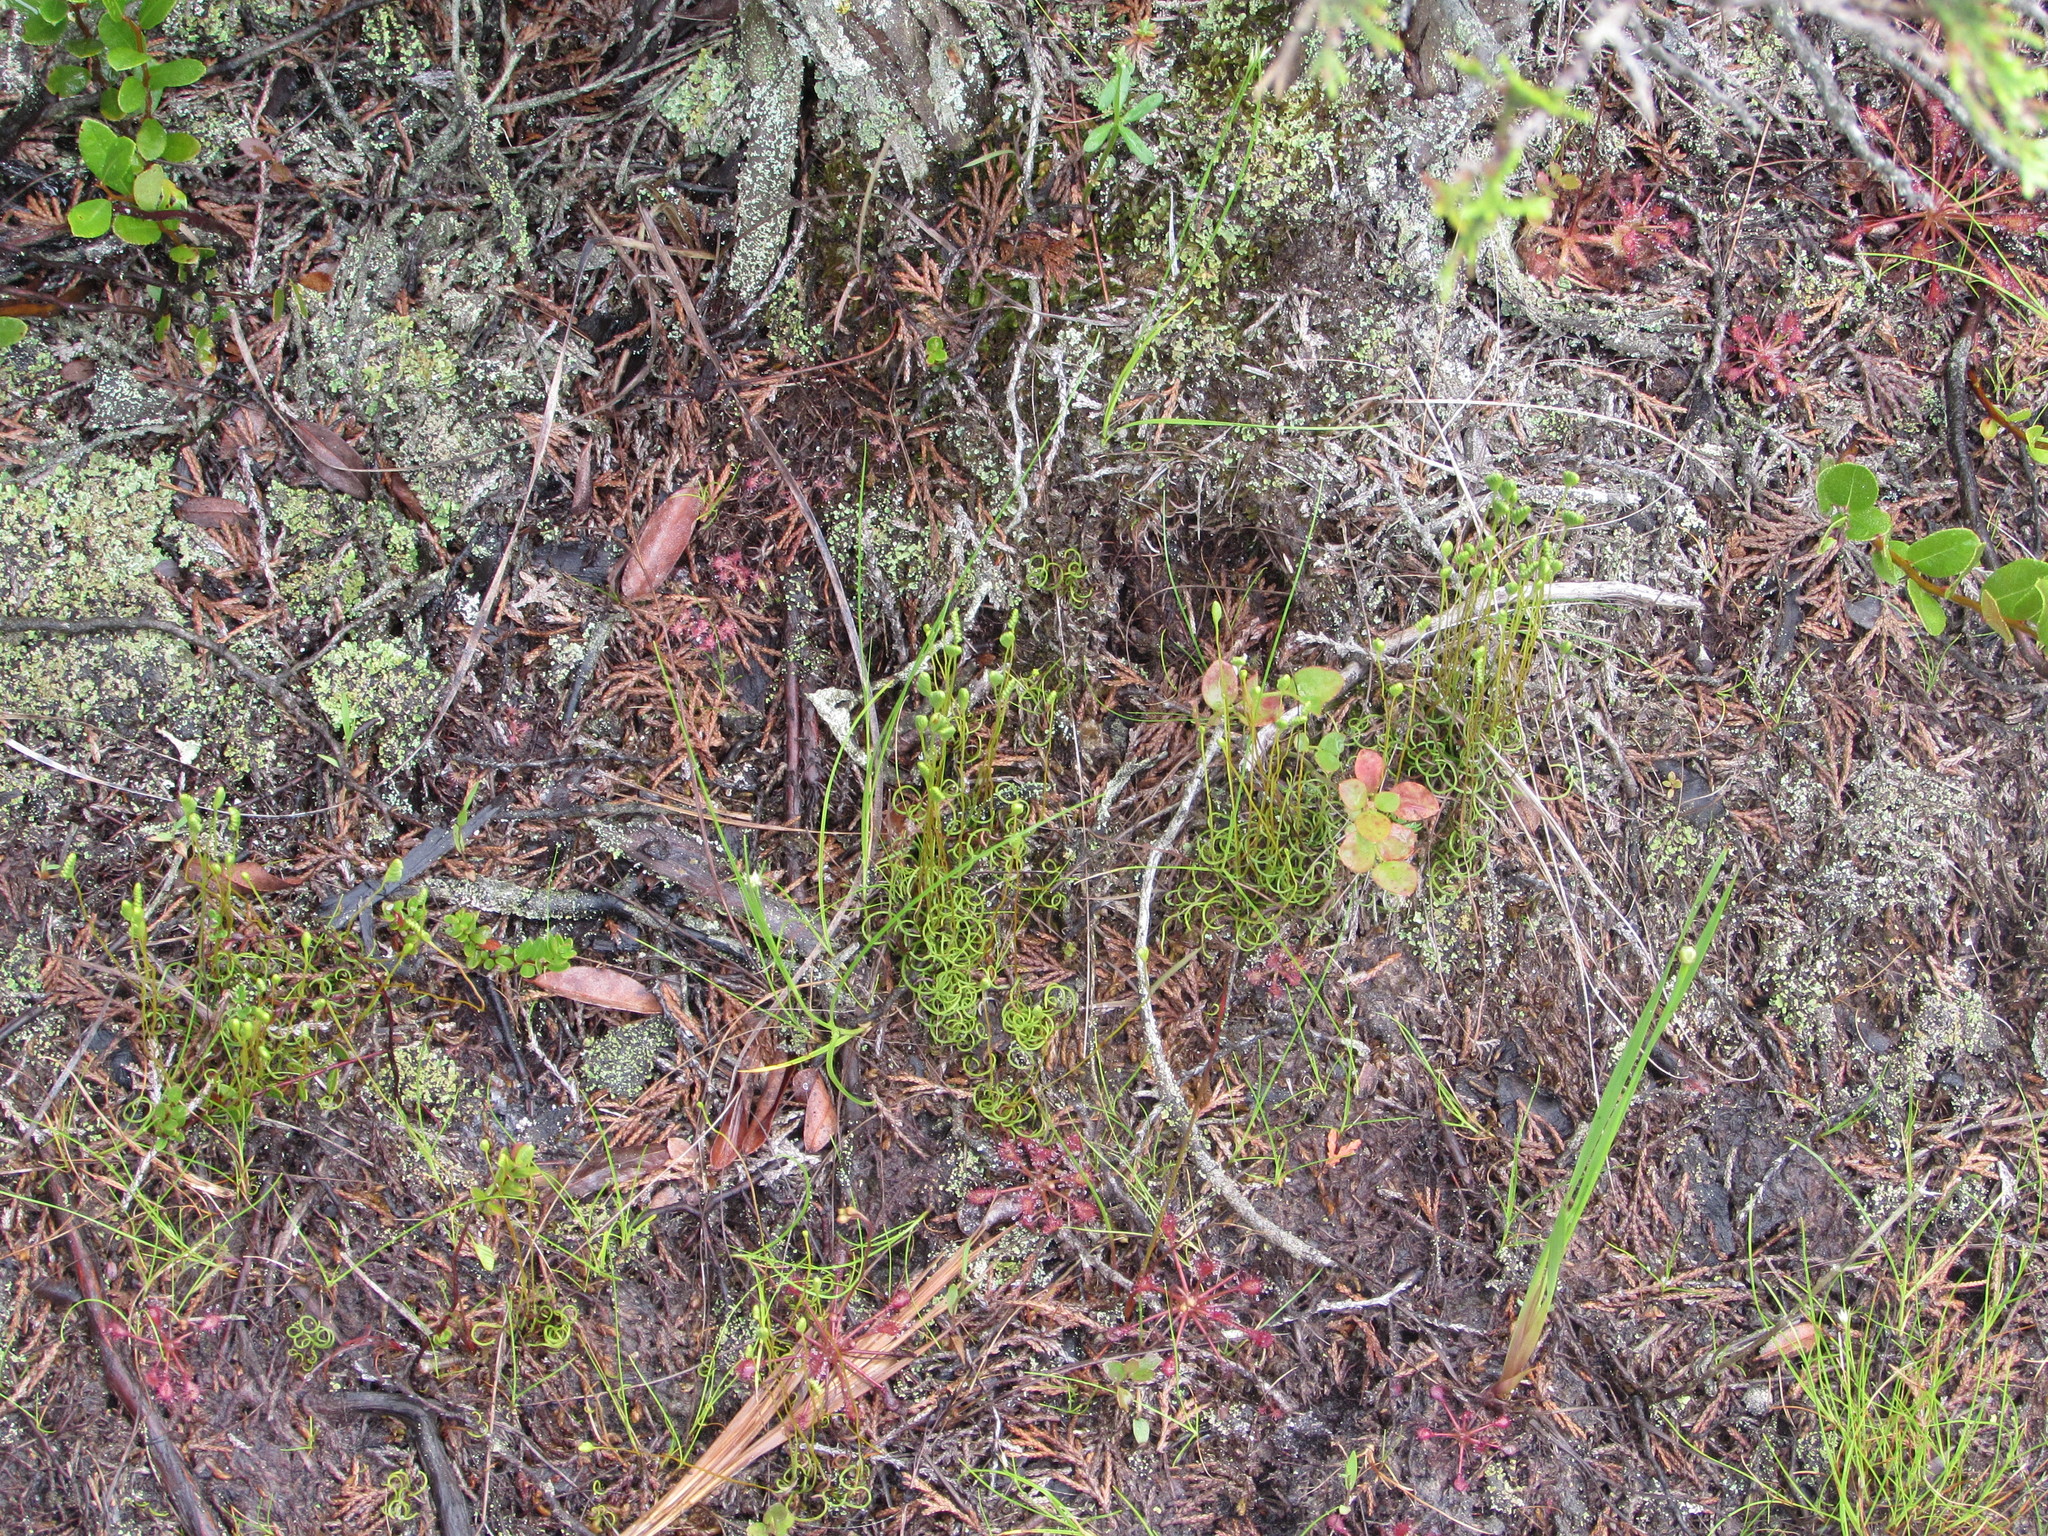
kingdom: Plantae
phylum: Tracheophyta
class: Polypodiopsida
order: Schizaeales
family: Schizaeaceae
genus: Schizaea
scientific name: Schizaea pusilla
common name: Curly-grass fern
